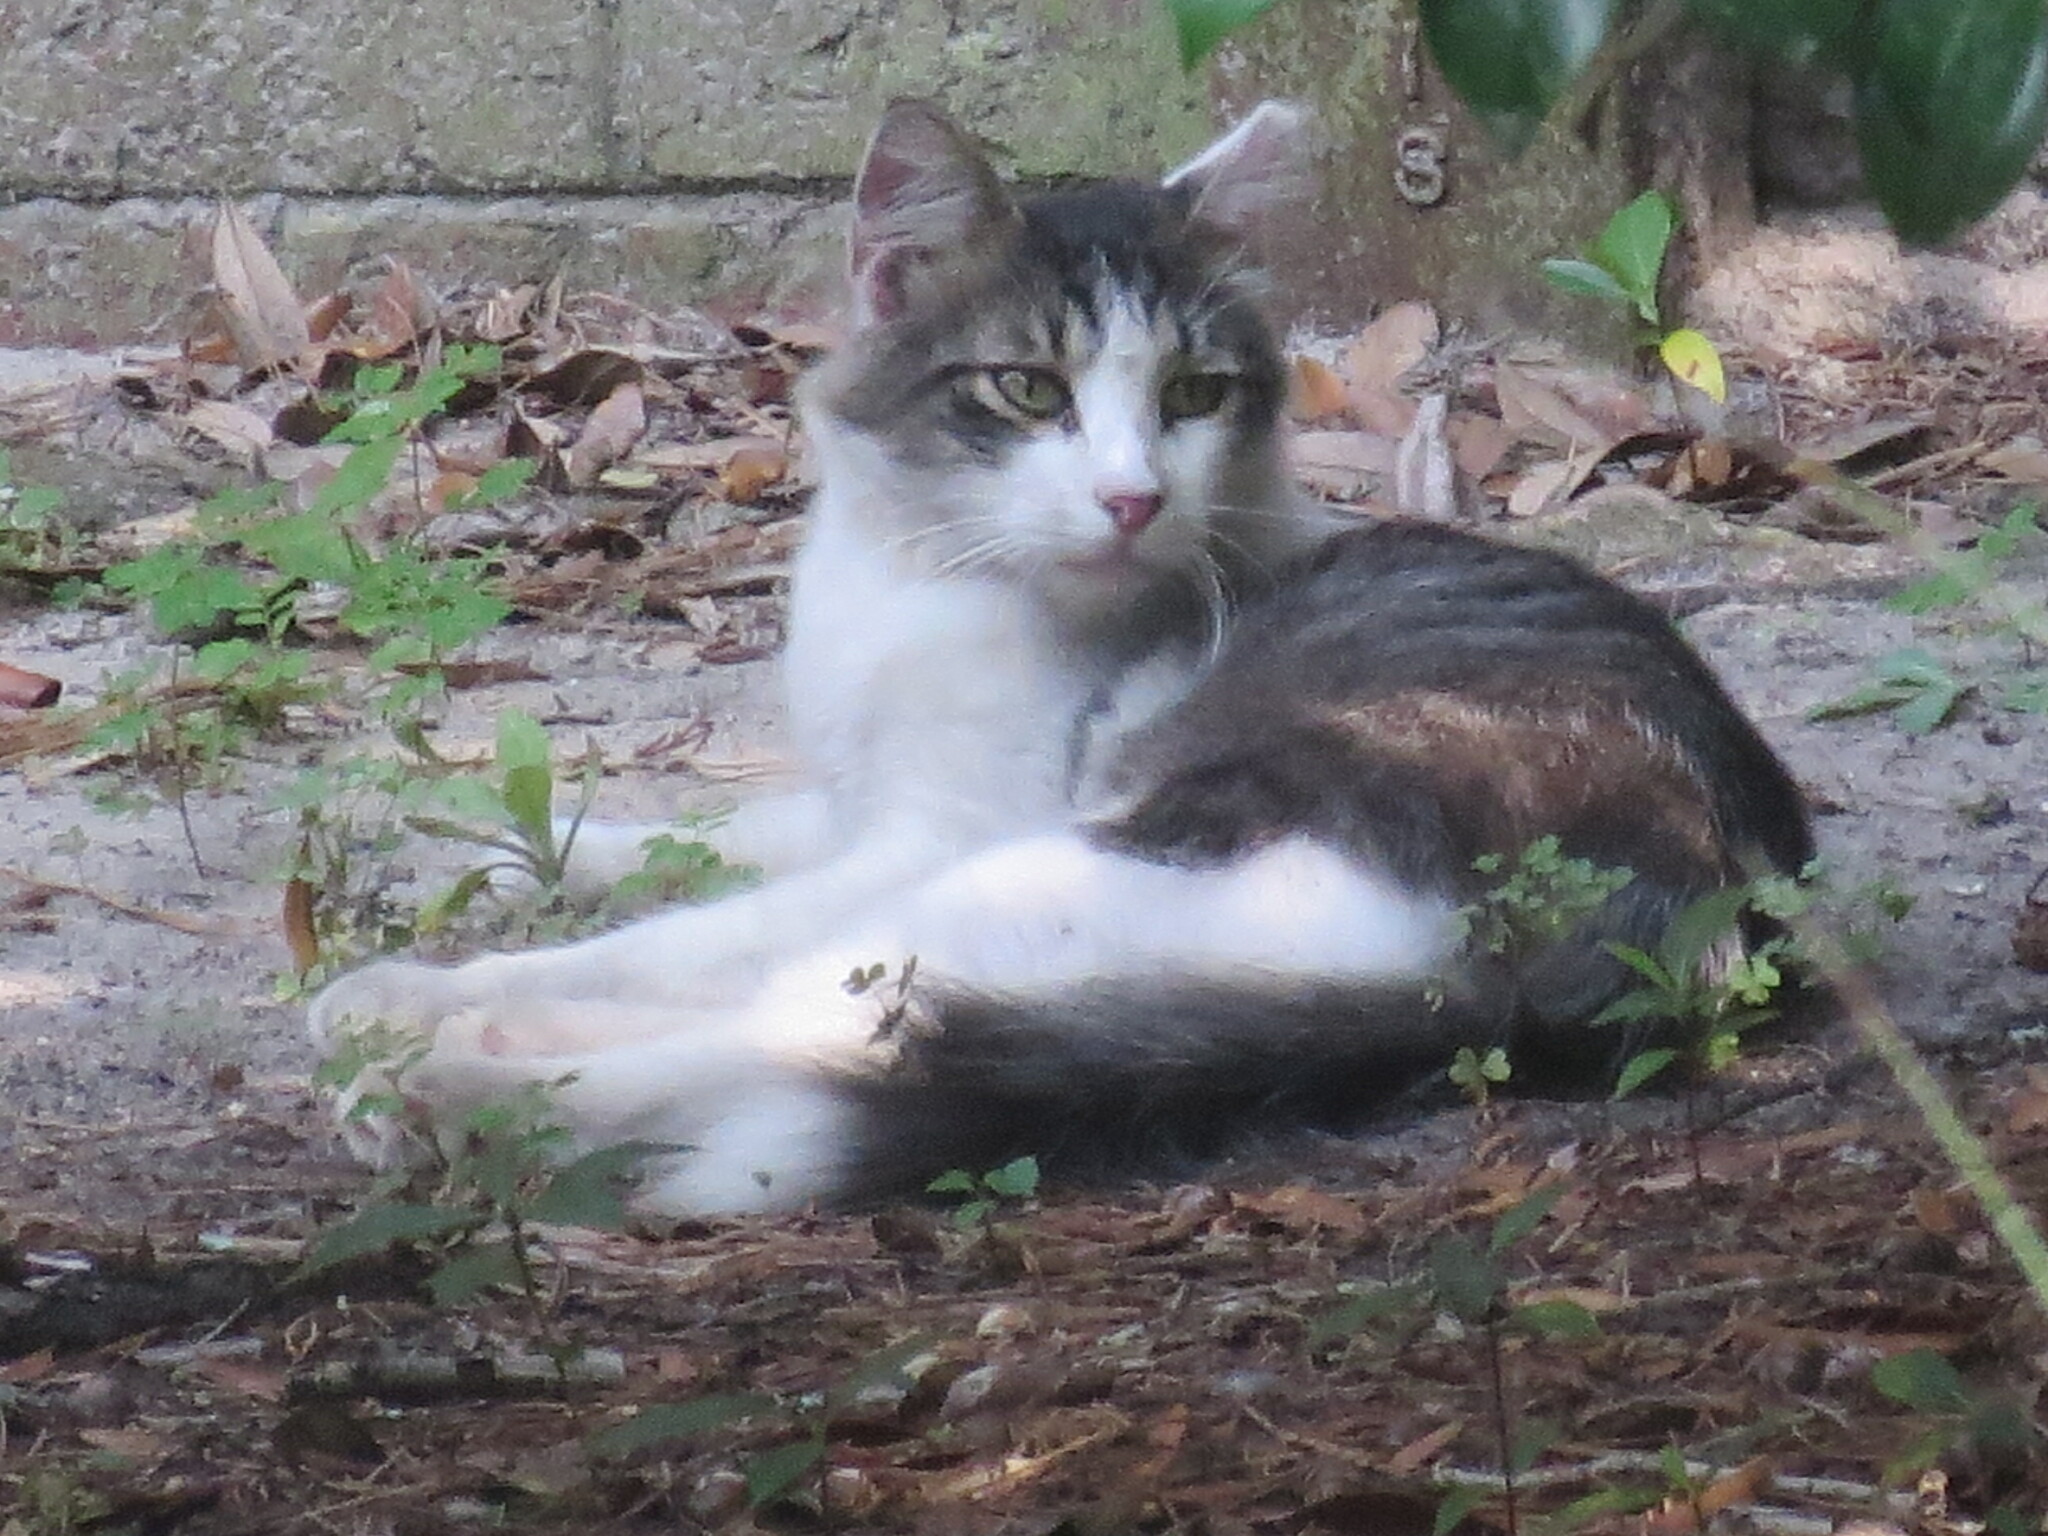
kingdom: Animalia
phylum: Chordata
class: Mammalia
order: Carnivora
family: Felidae
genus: Felis
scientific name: Felis catus
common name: Domestic cat
